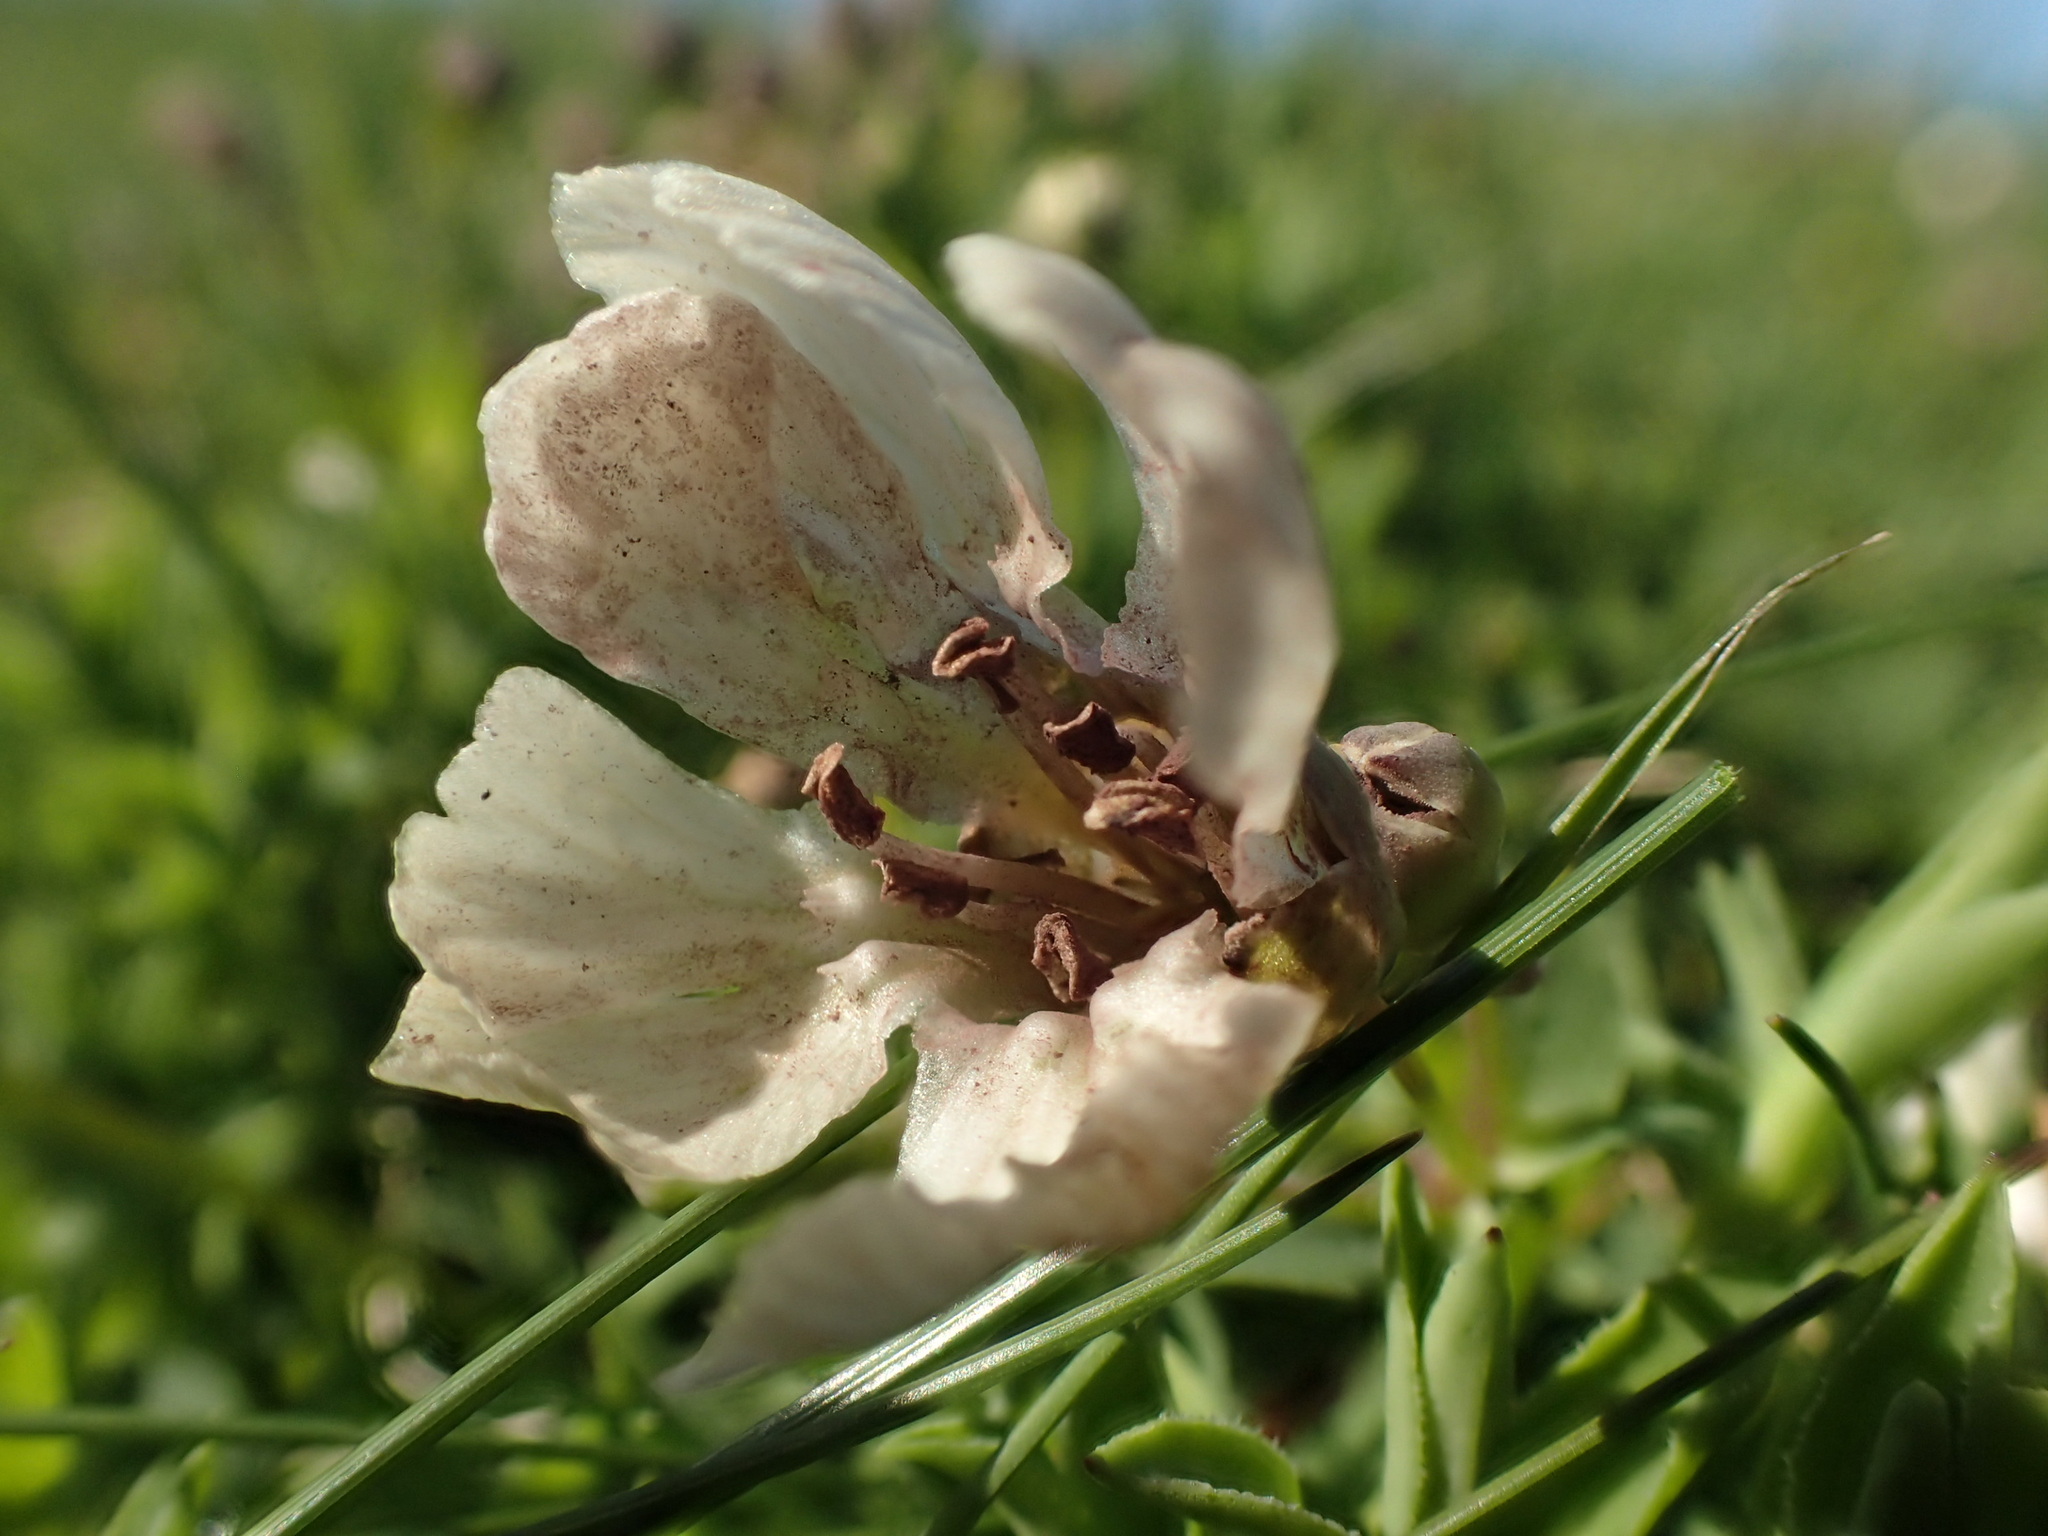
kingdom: Fungi
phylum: Basidiomycota
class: Microbotryomycetes
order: Microbotryales
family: Microbotryaceae
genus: Microbotryum
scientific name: Microbotryum lagerheimii
